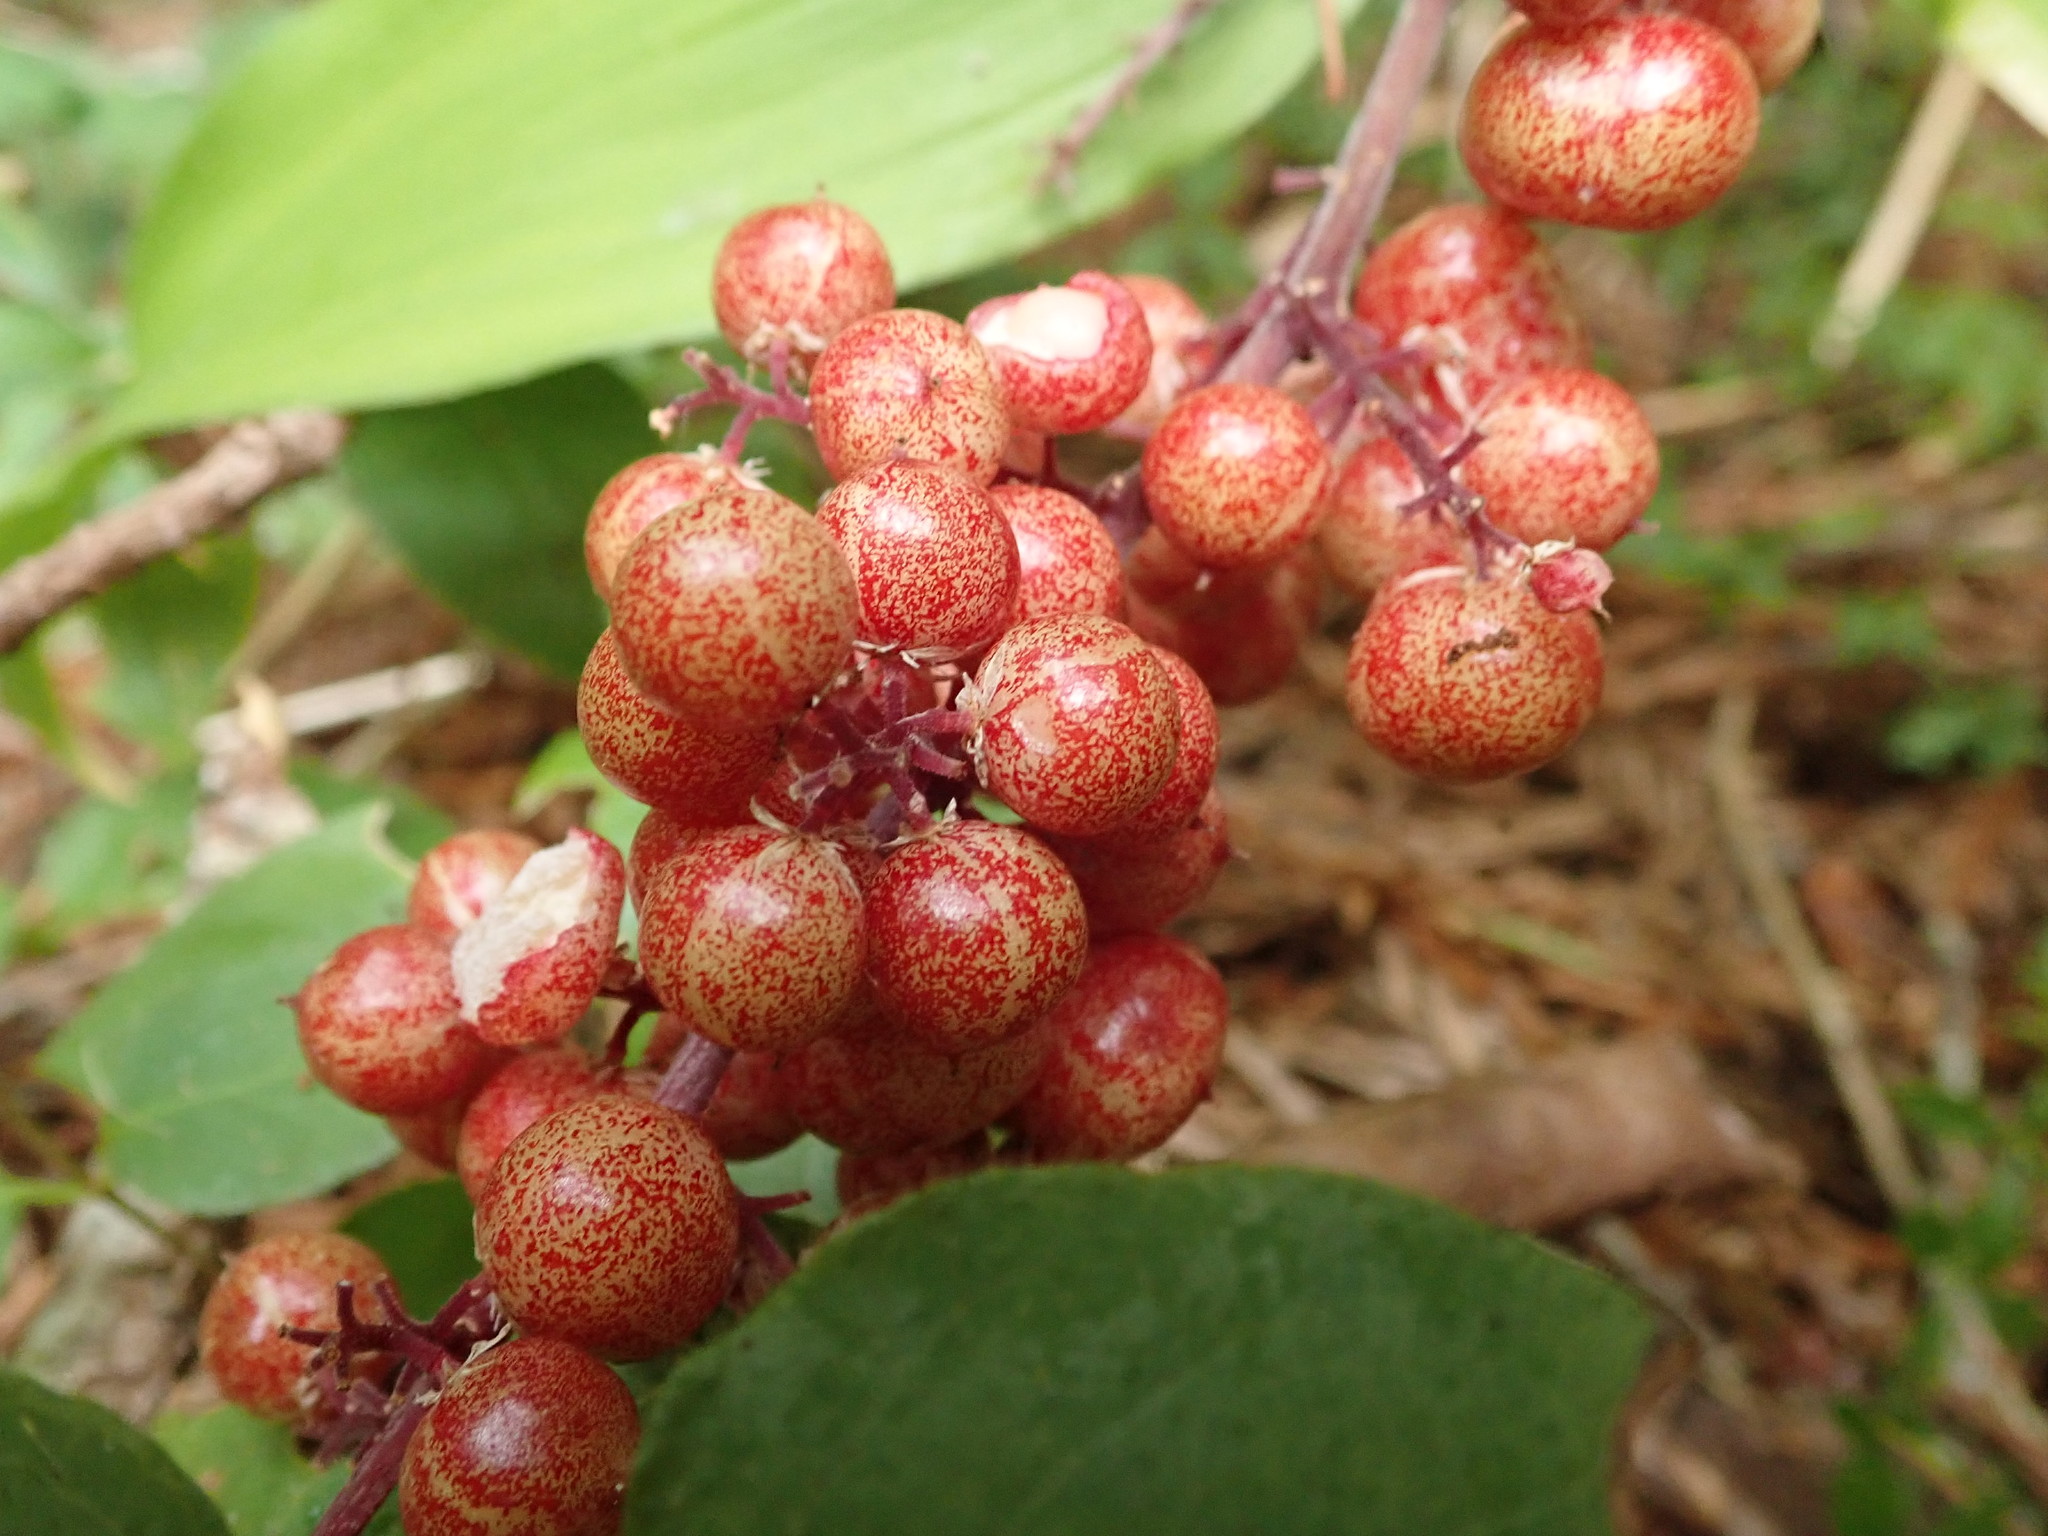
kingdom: Plantae
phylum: Tracheophyta
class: Liliopsida
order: Asparagales
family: Asparagaceae
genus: Maianthemum
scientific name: Maianthemum racemosum
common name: False spikenard
